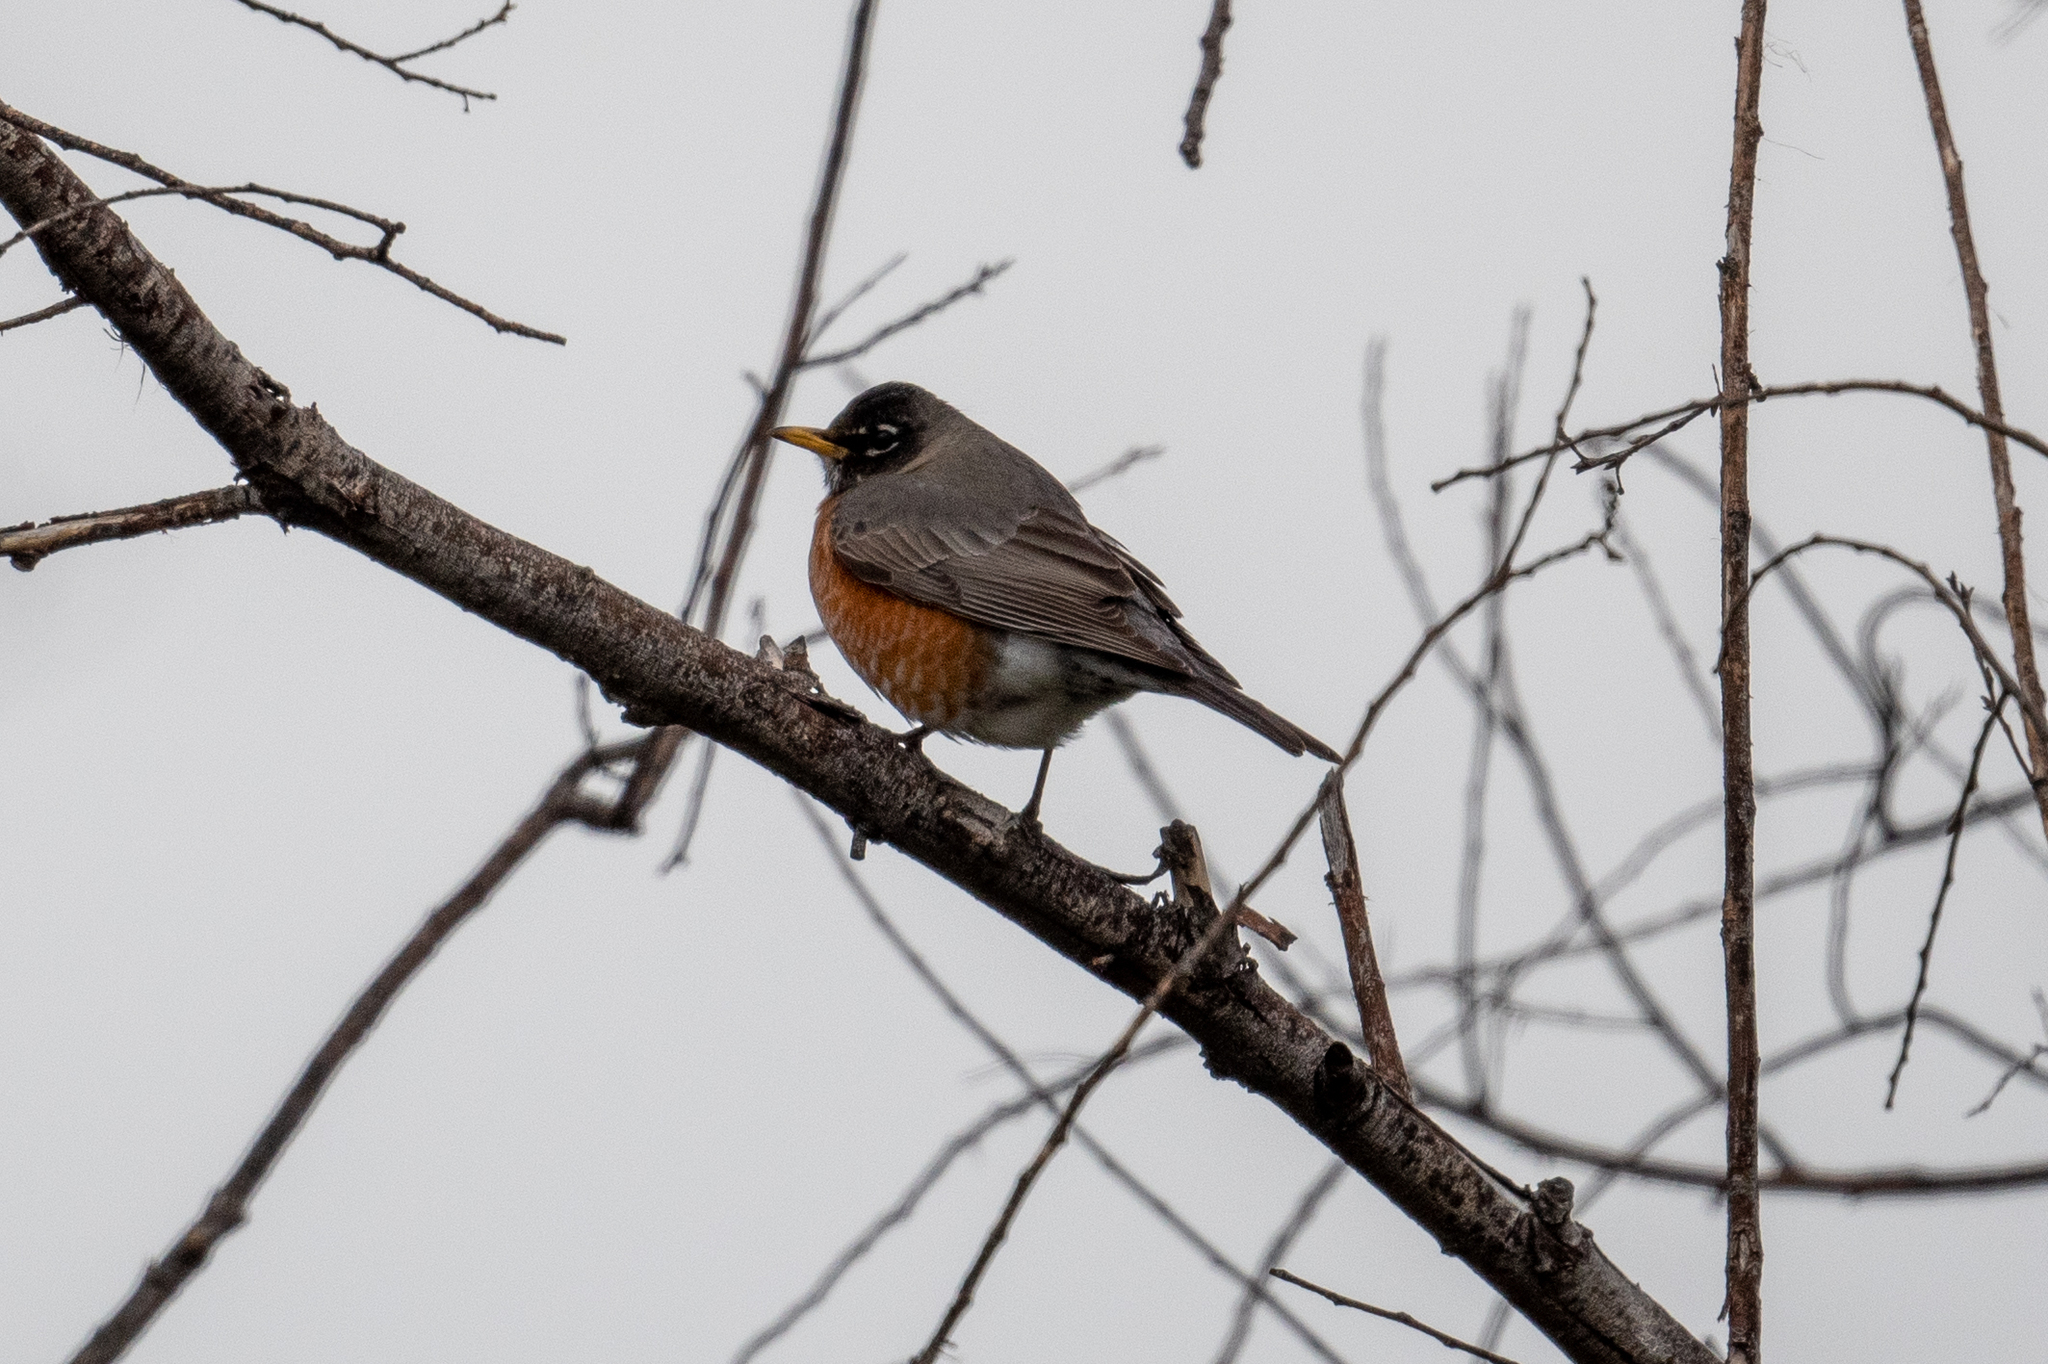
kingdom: Animalia
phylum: Chordata
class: Aves
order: Passeriformes
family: Turdidae
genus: Turdus
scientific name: Turdus migratorius
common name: American robin
